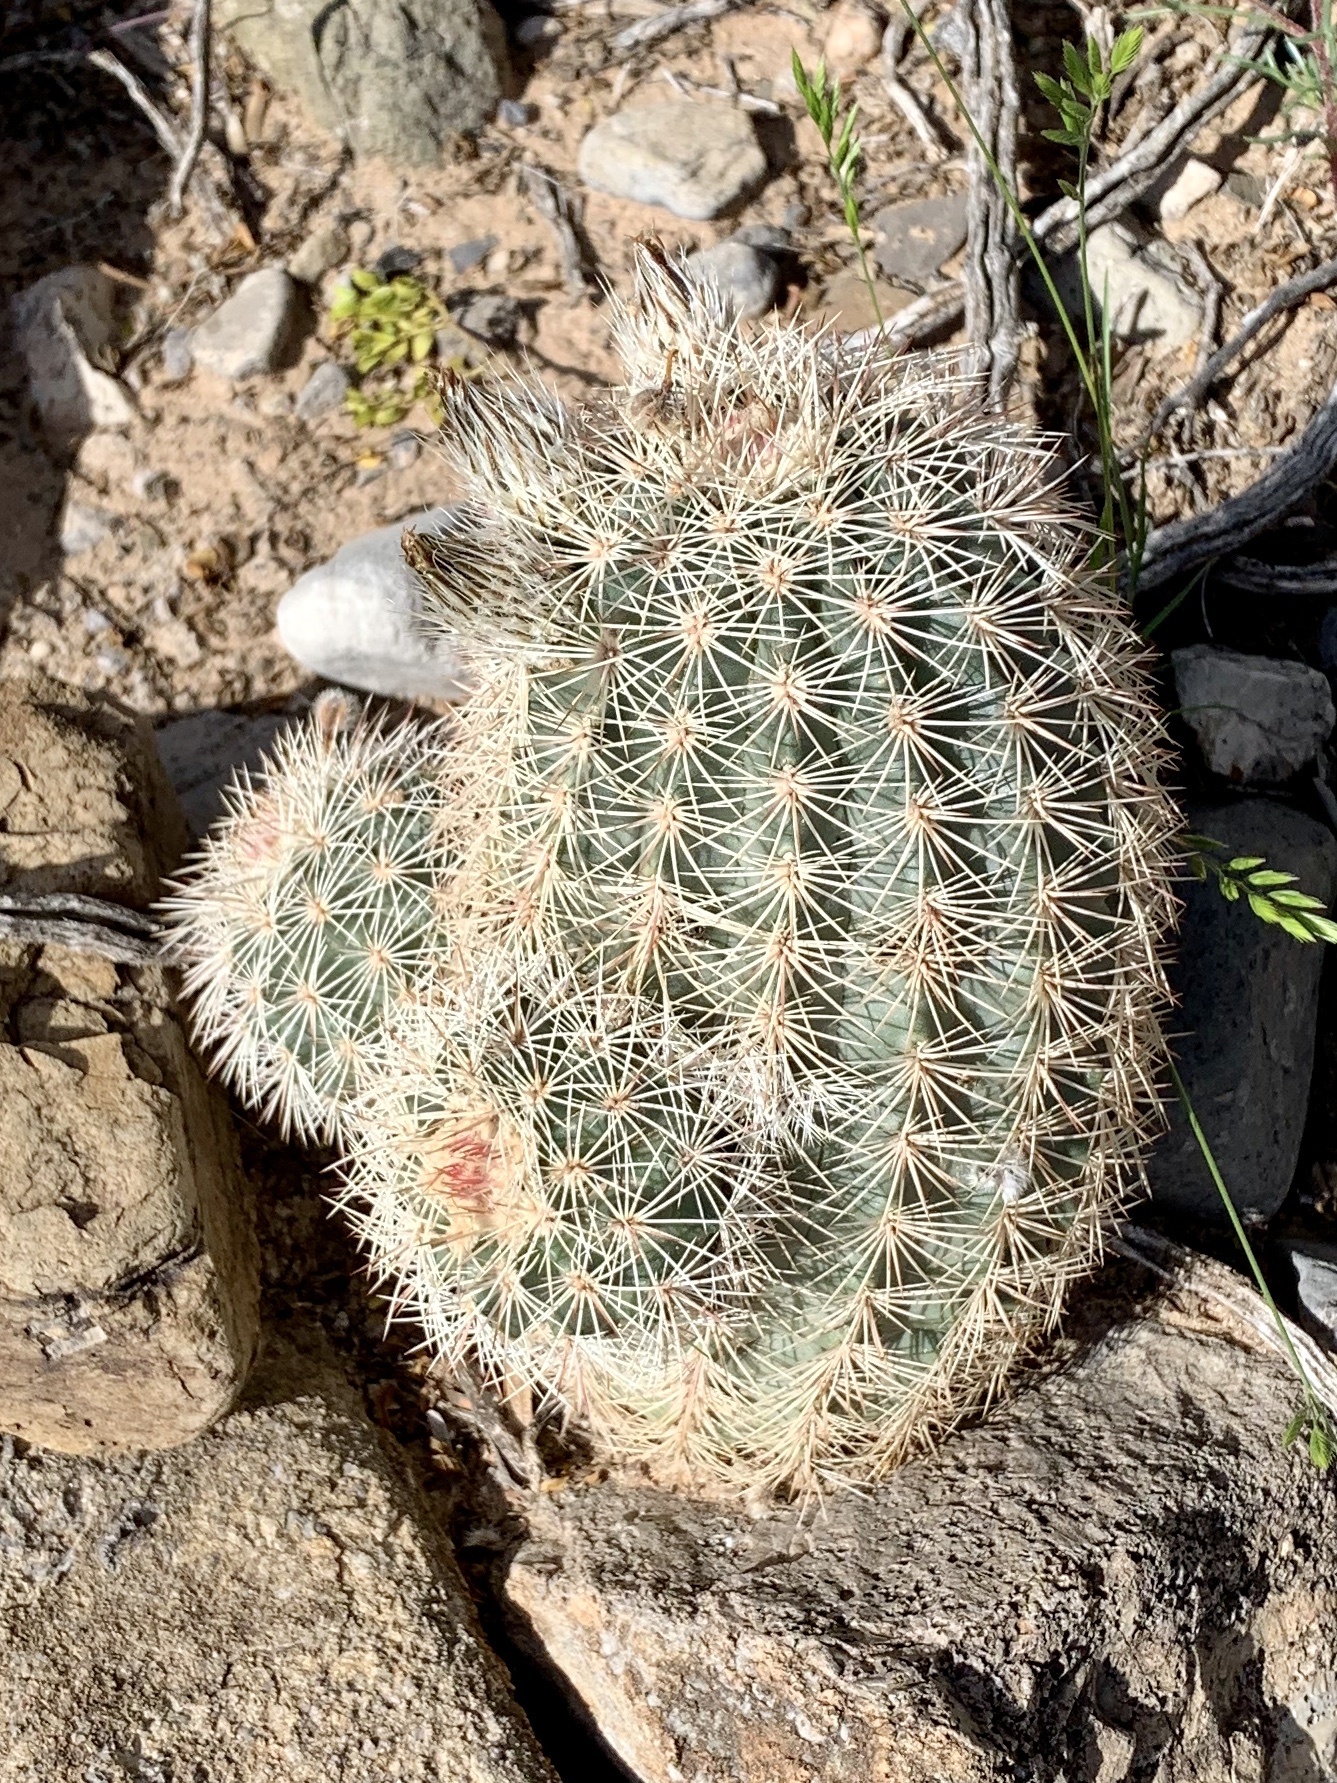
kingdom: Plantae
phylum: Tracheophyta
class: Magnoliopsida
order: Caryophyllales
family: Cactaceae
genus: Echinocereus
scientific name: Echinocereus dasyacanthus
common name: Spiny hedgehog cactus
